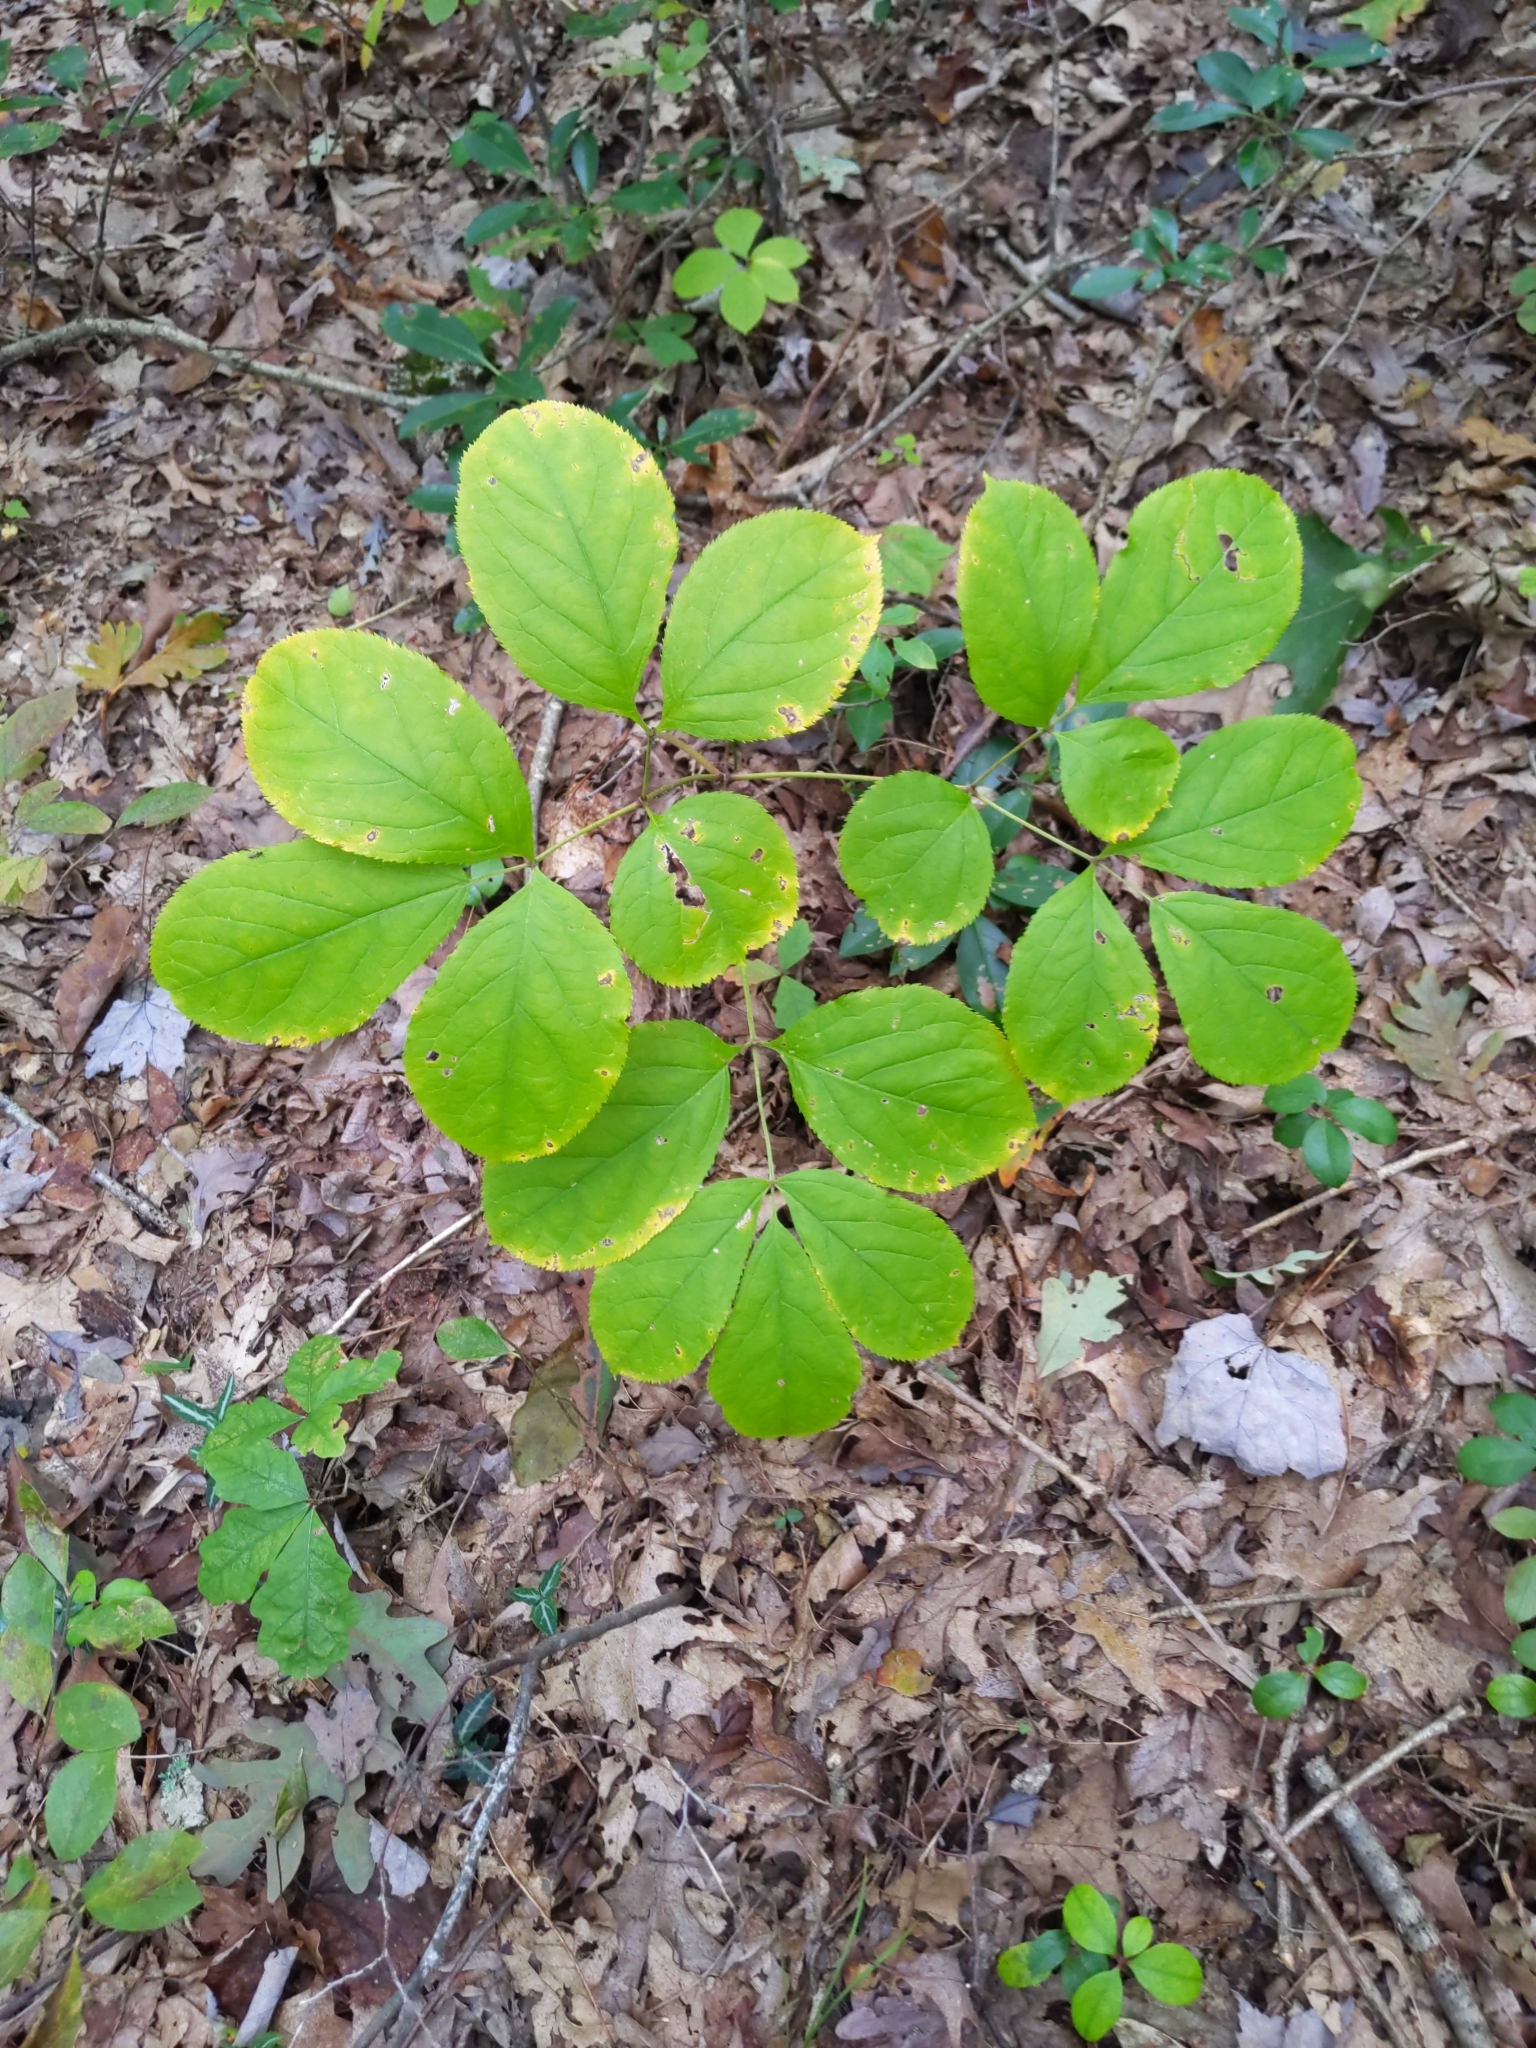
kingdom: Plantae
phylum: Tracheophyta
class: Magnoliopsida
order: Apiales
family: Araliaceae
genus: Aralia
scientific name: Aralia nudicaulis
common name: Wild sarsaparilla
